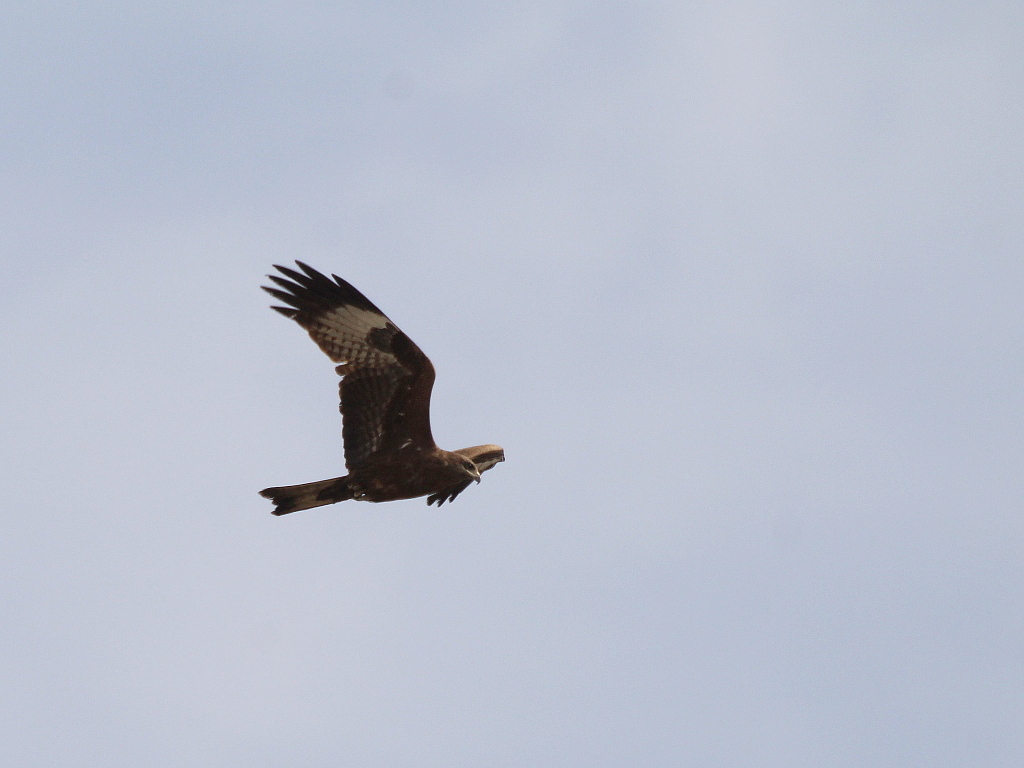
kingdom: Animalia
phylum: Chordata
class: Aves
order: Accipitriformes
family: Accipitridae
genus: Milvus
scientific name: Milvus migrans
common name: Black kite
